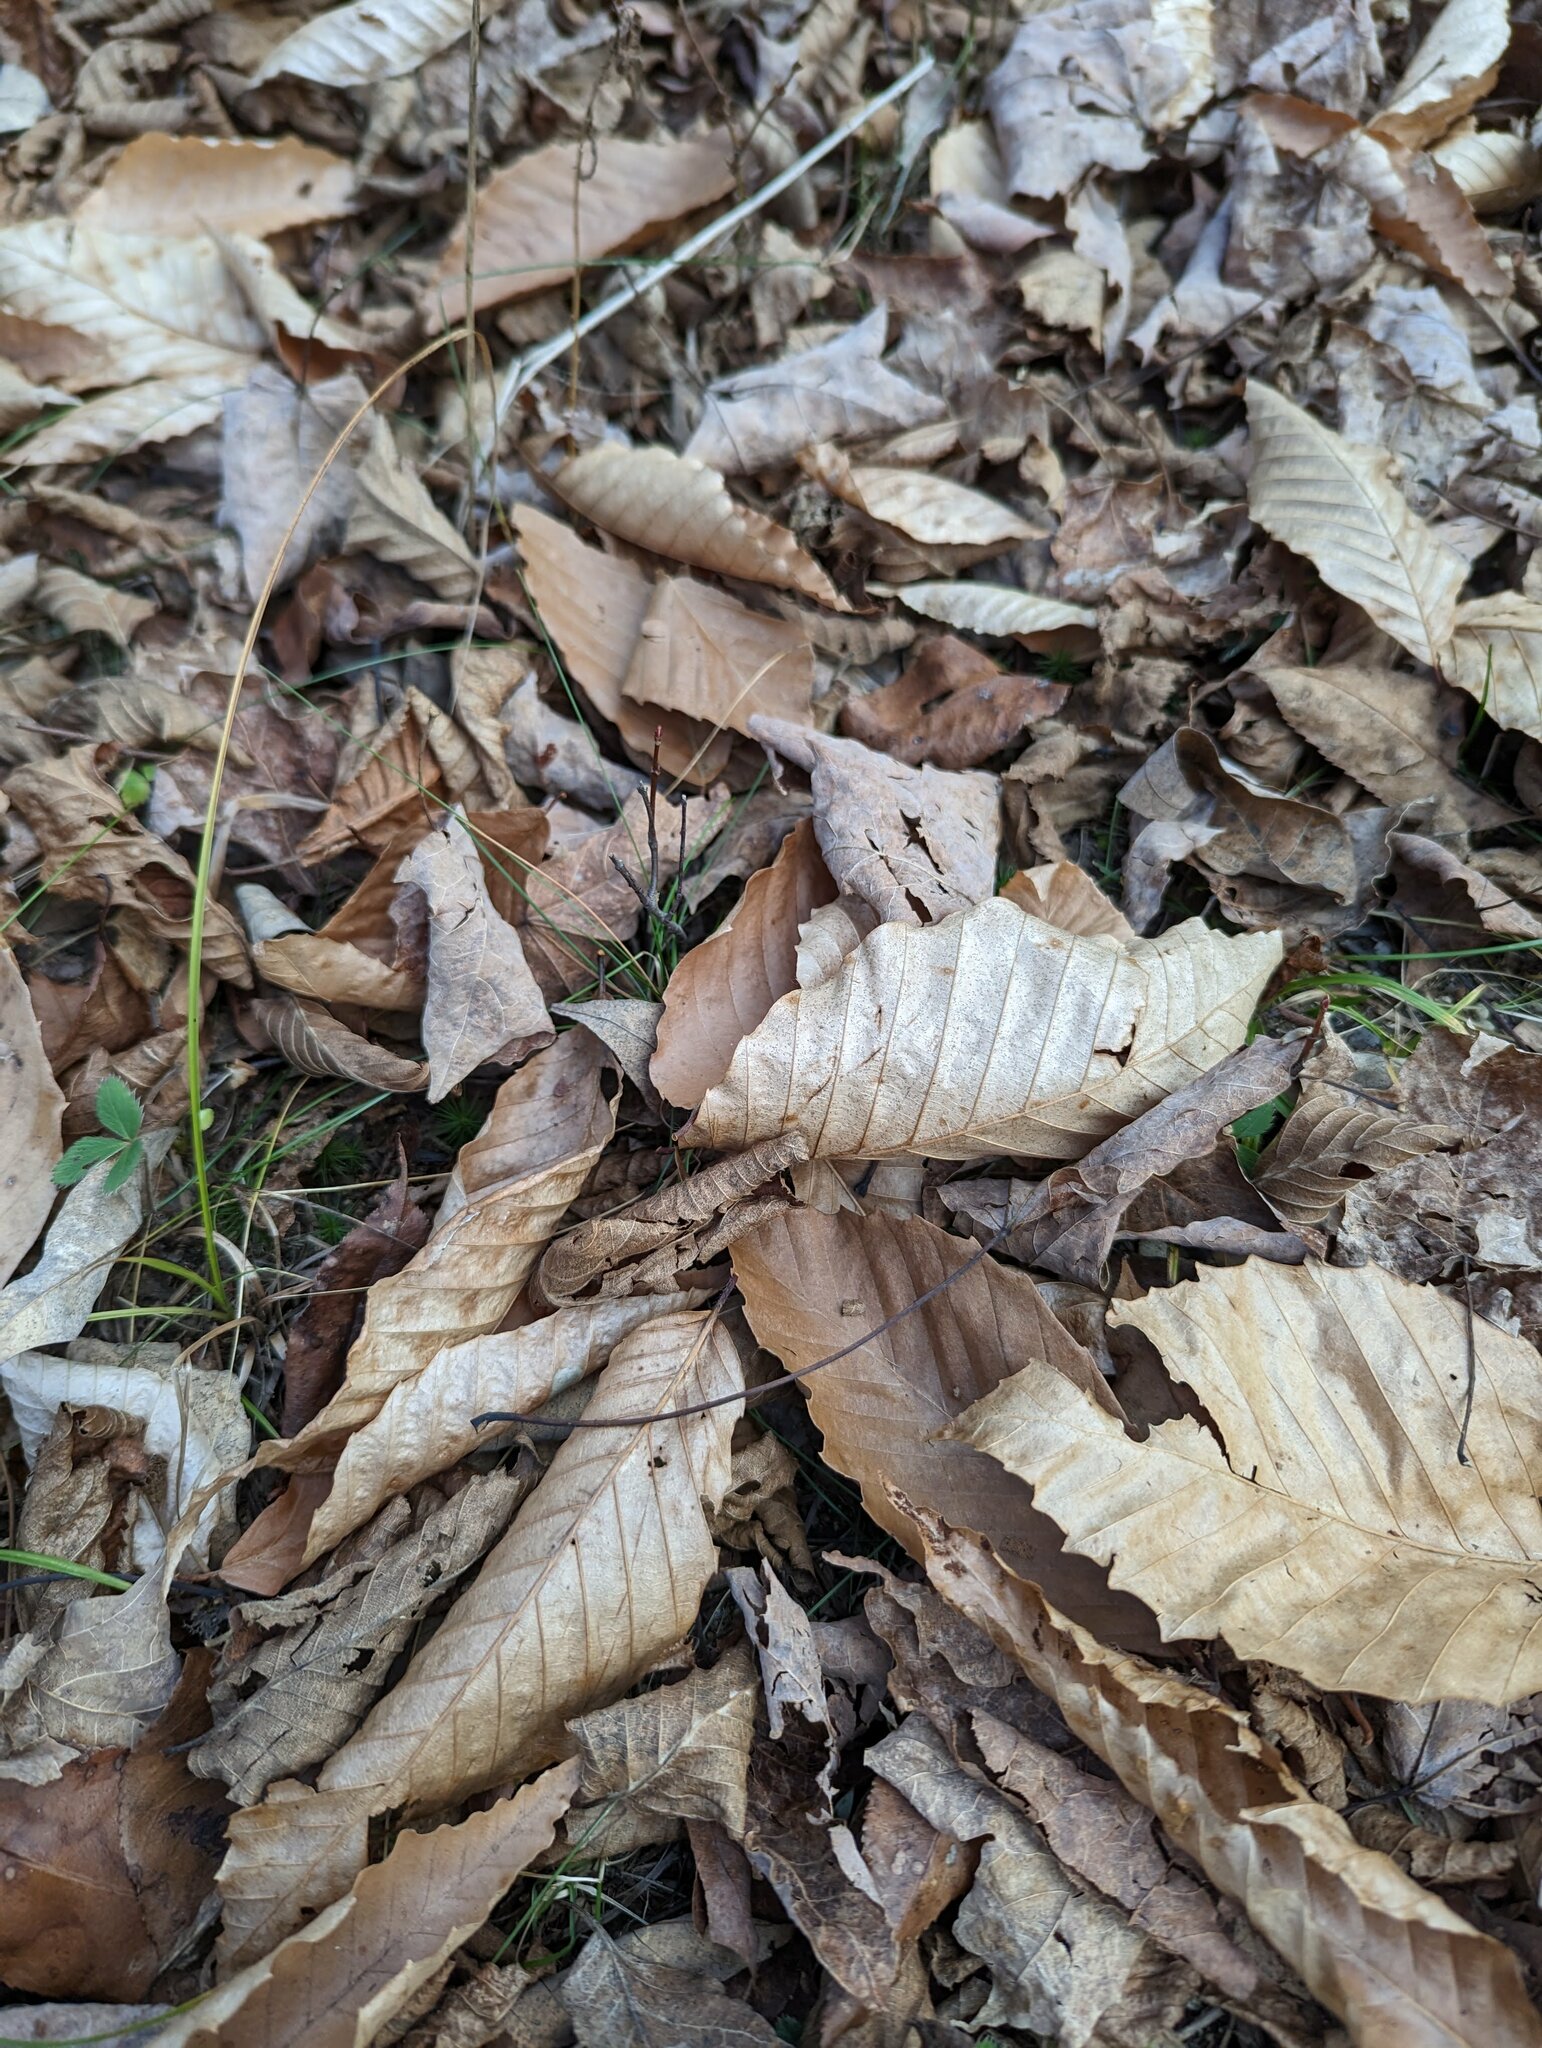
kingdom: Plantae
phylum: Tracheophyta
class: Magnoliopsida
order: Fagales
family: Fagaceae
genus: Fagus
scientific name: Fagus grandifolia
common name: American beech
